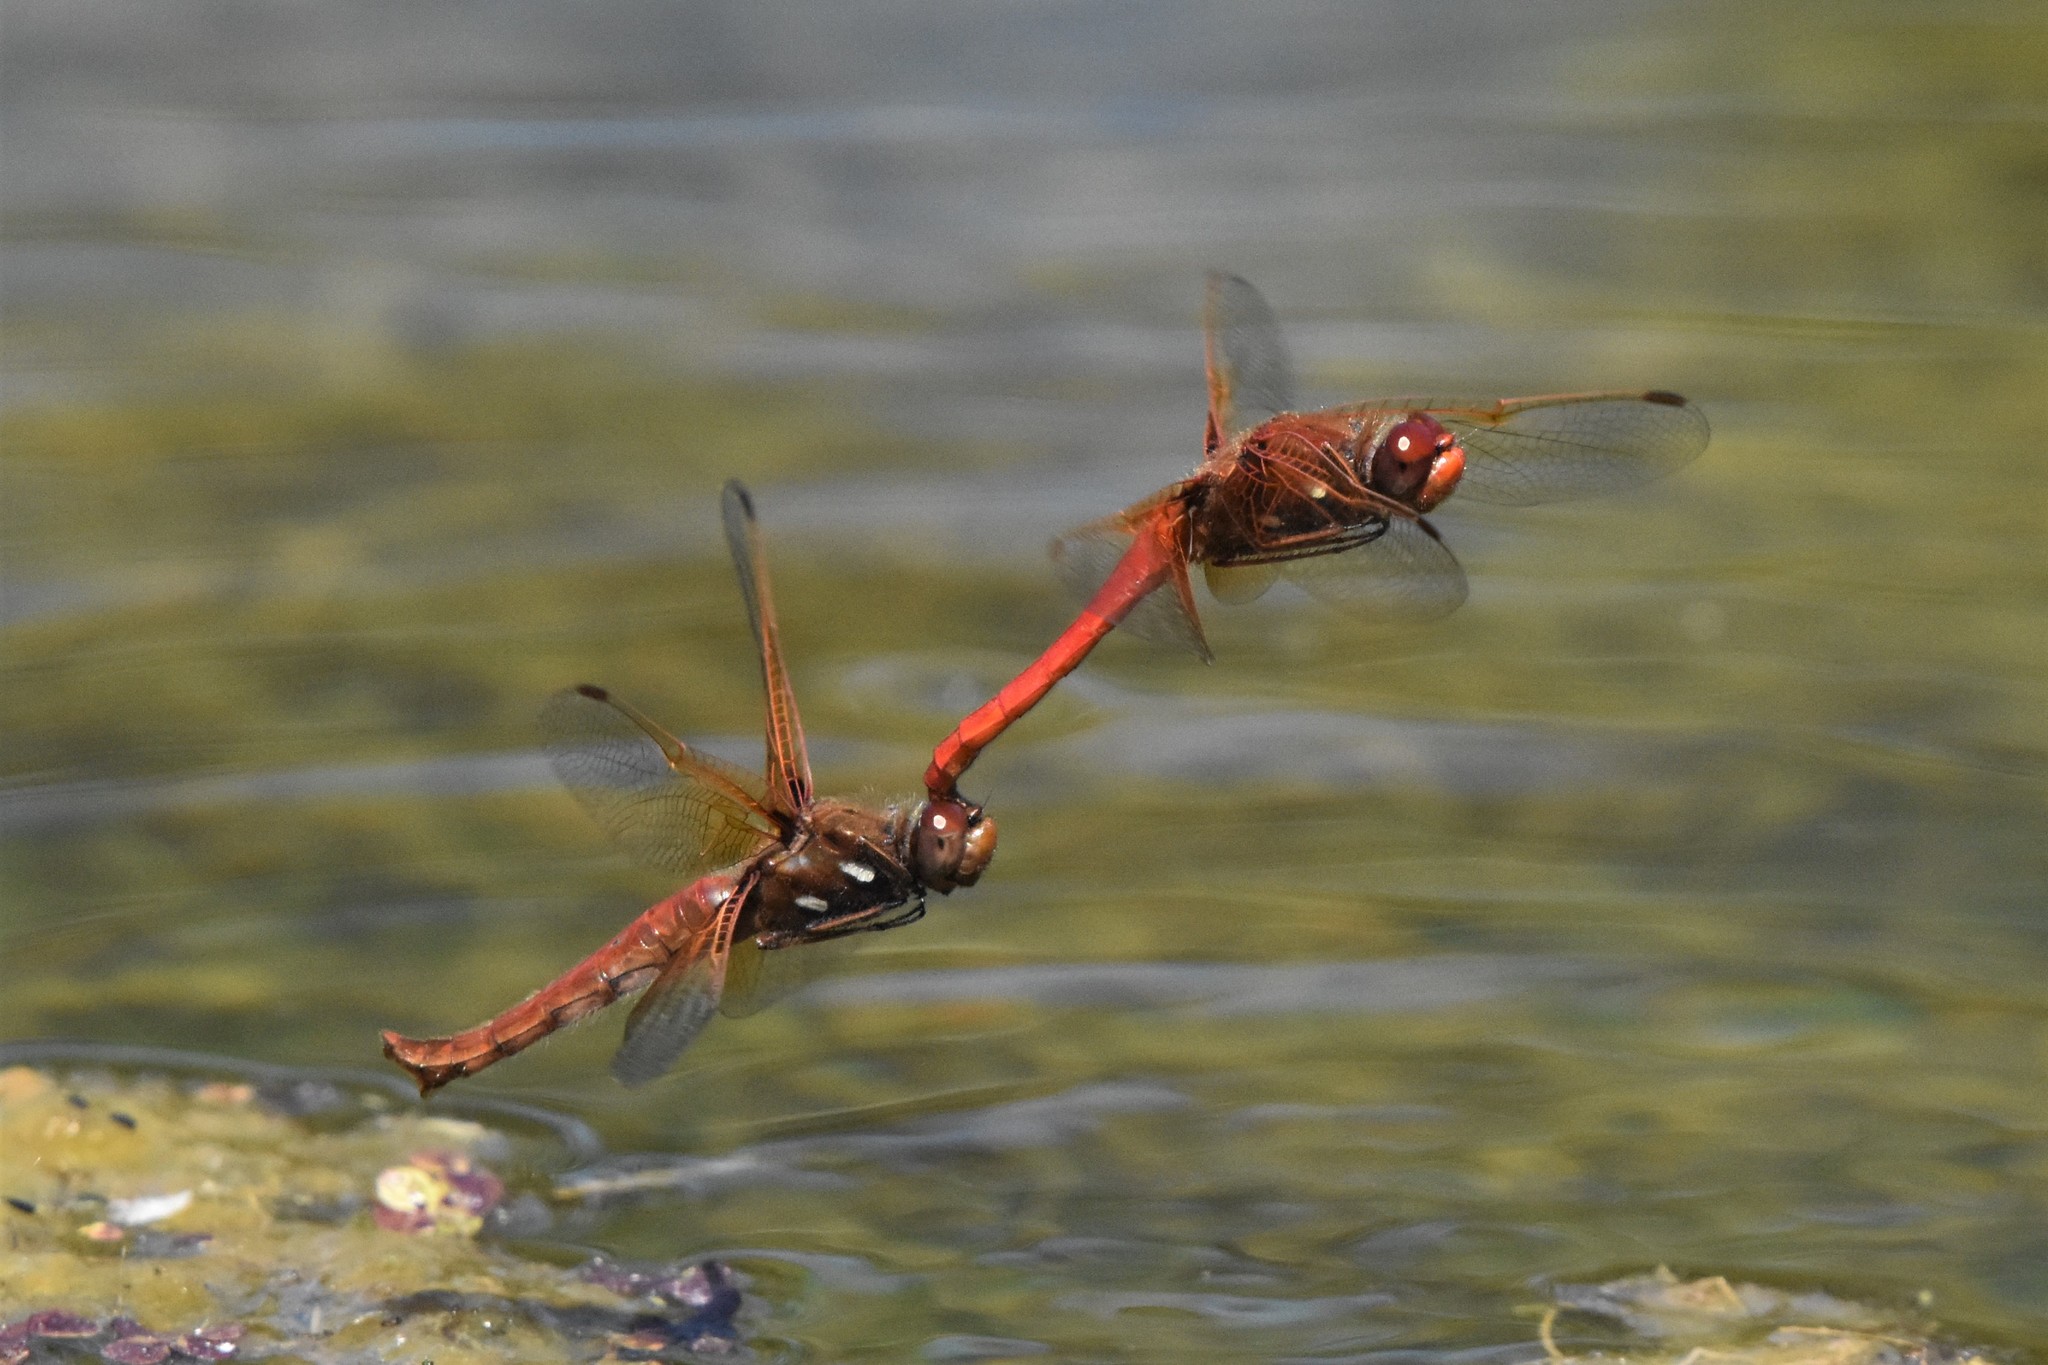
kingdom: Animalia
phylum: Arthropoda
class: Insecta
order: Odonata
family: Libellulidae
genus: Sympetrum
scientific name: Sympetrum illotum
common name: Cardinal meadowhawk
